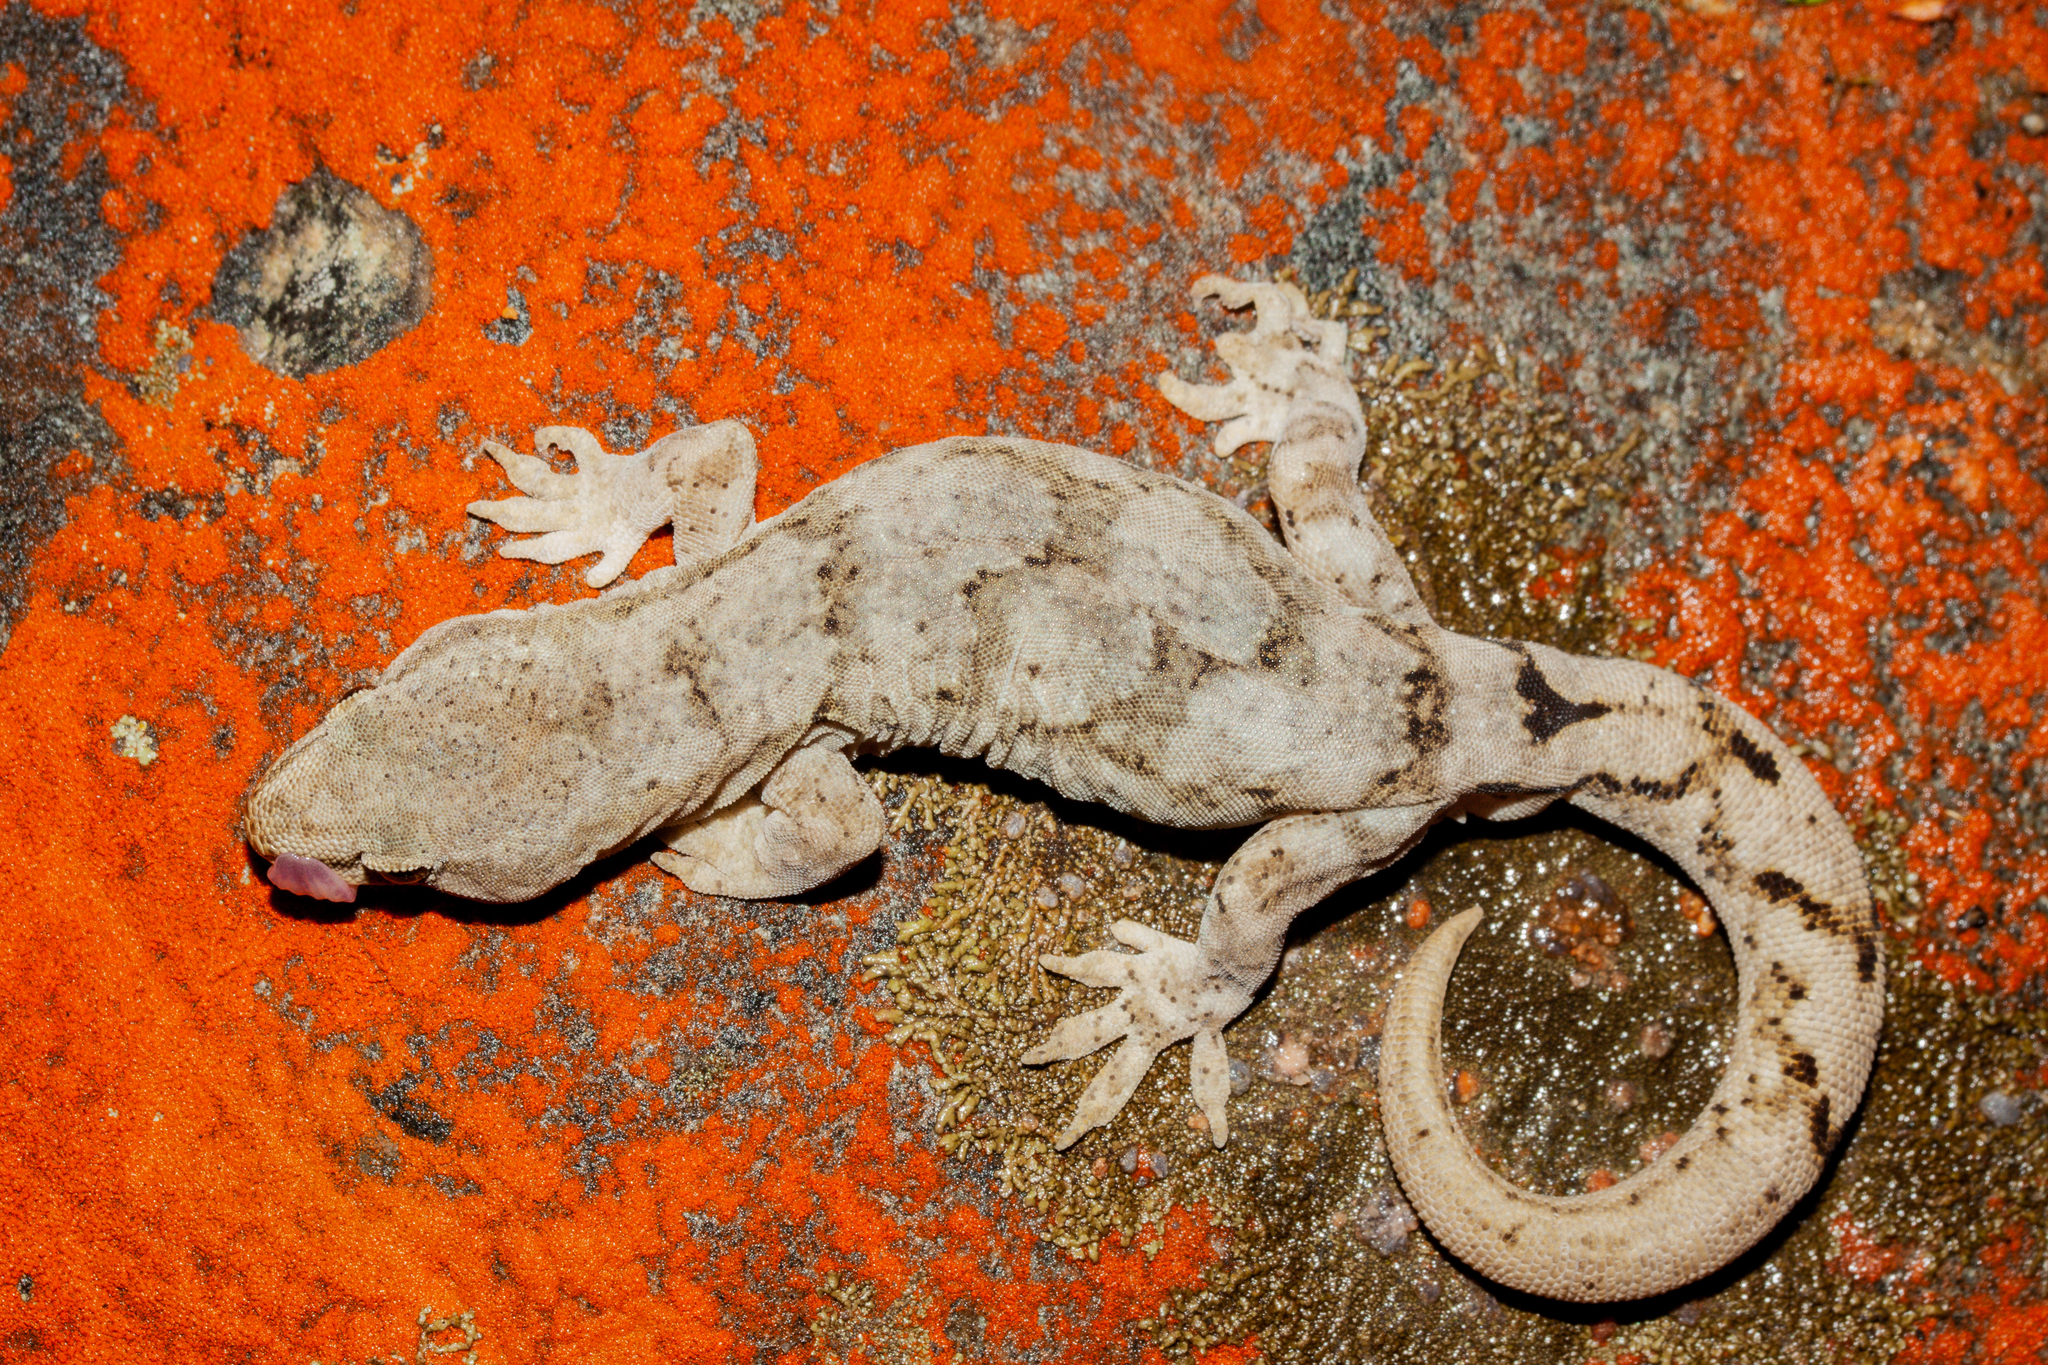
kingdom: Animalia
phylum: Chordata
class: Squamata
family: Diplodactylidae
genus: Woodworthia
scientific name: Woodworthia
